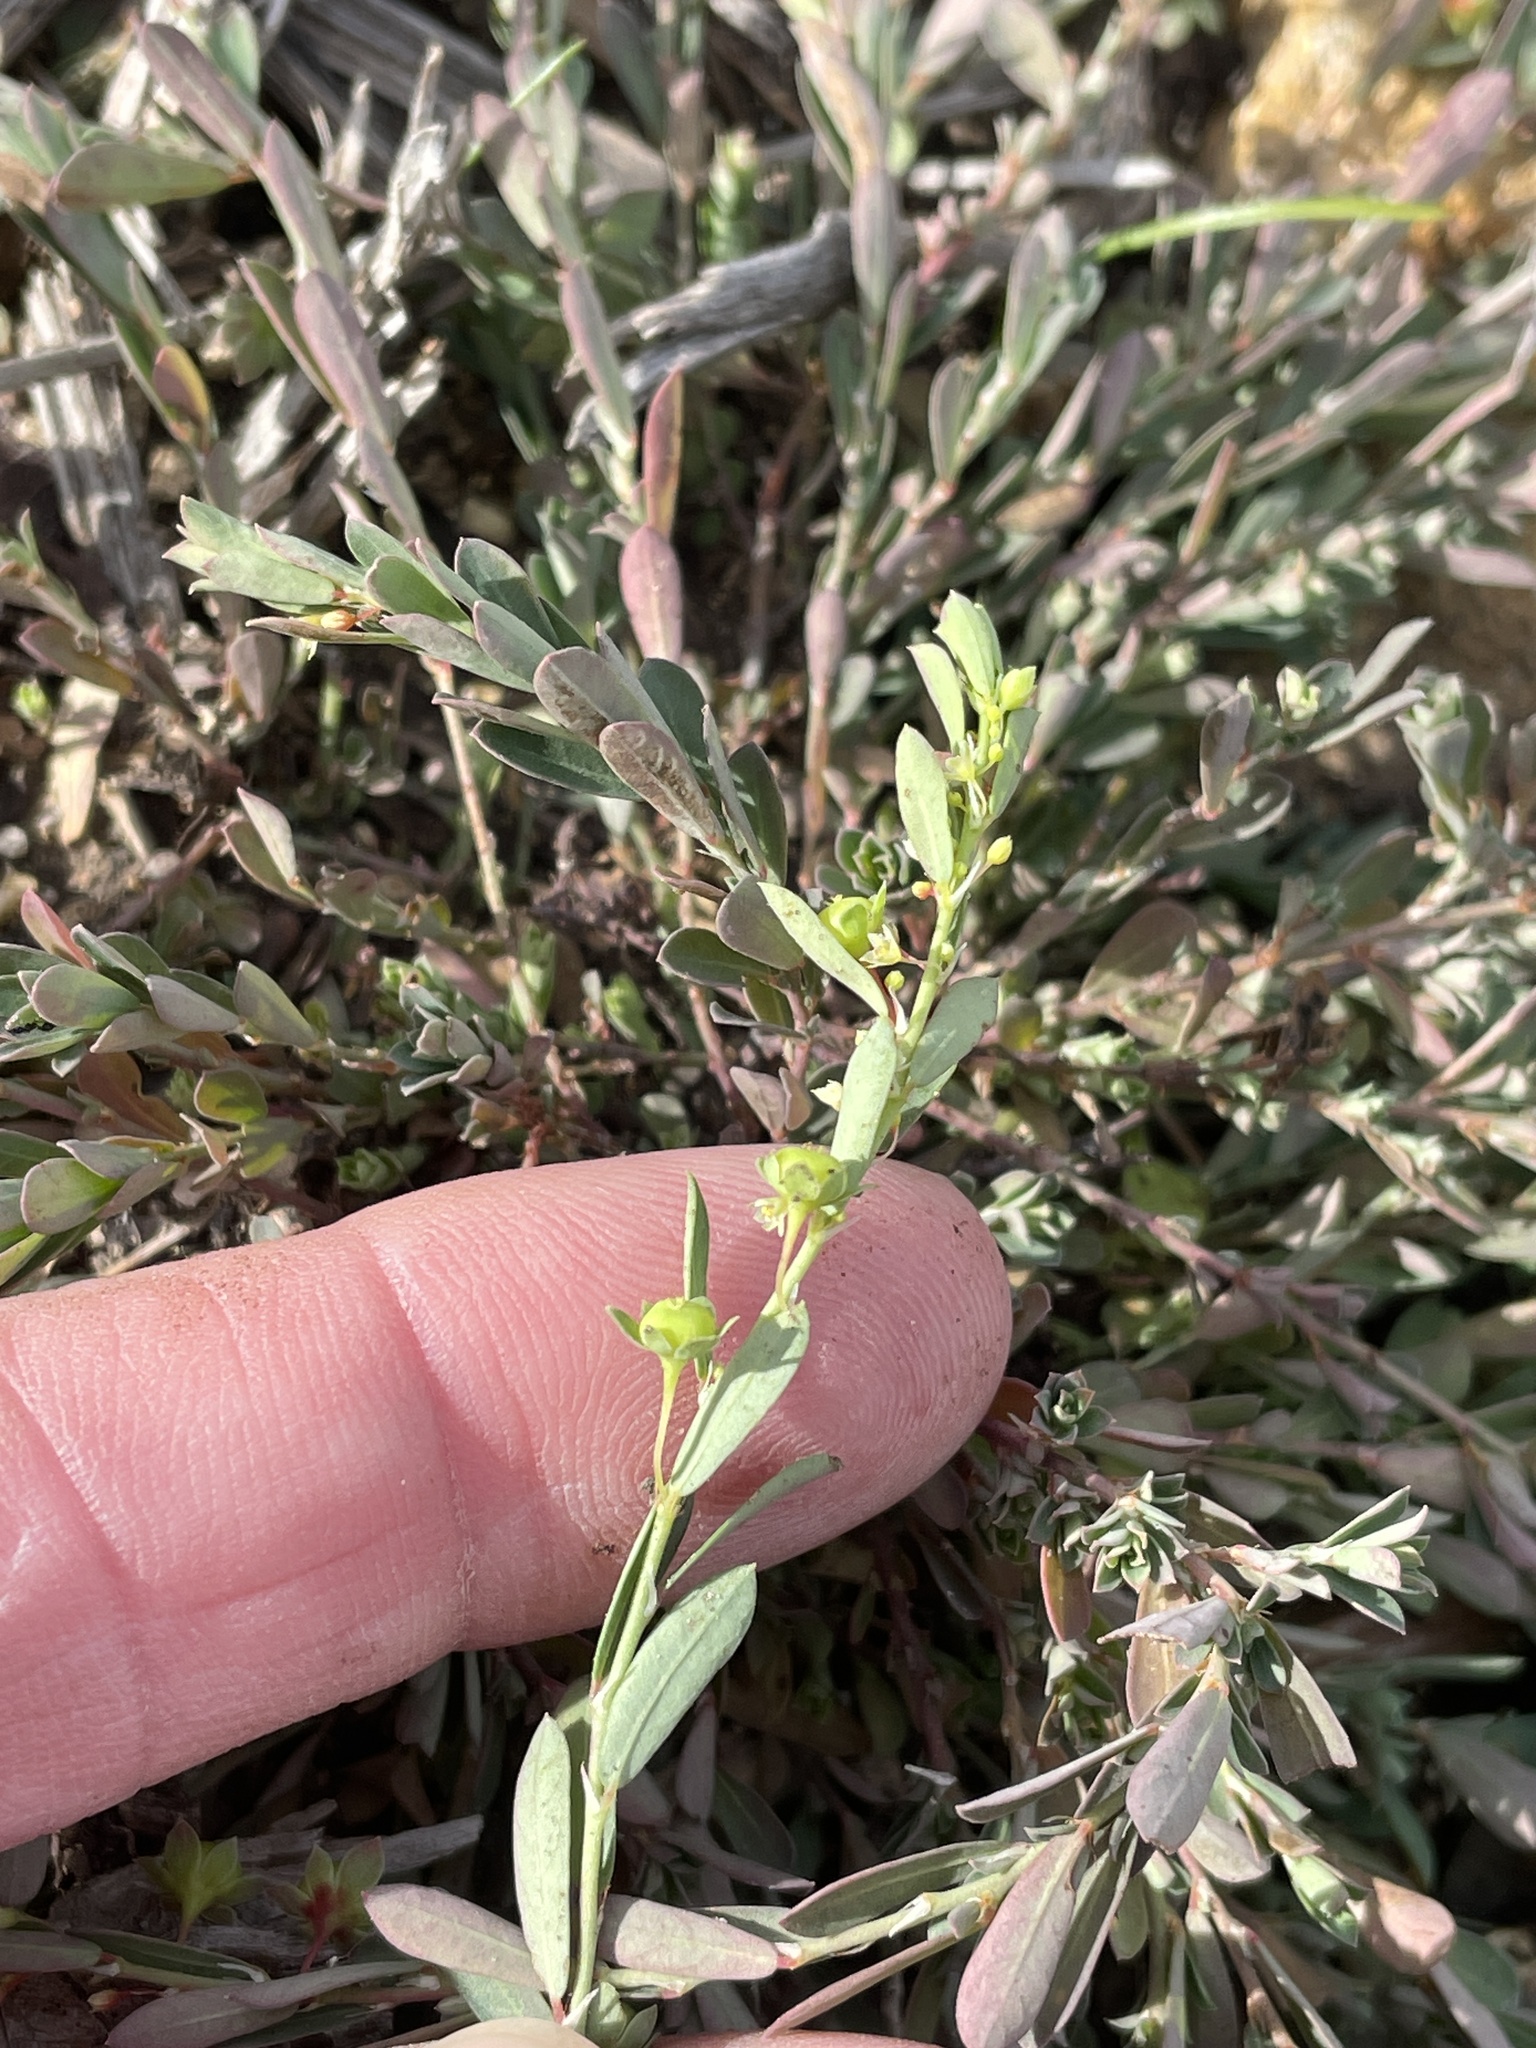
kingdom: Plantae
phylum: Tracheophyta
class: Magnoliopsida
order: Malpighiales
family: Phyllanthaceae
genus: Phyllanthus
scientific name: Phyllanthus polygonoides
